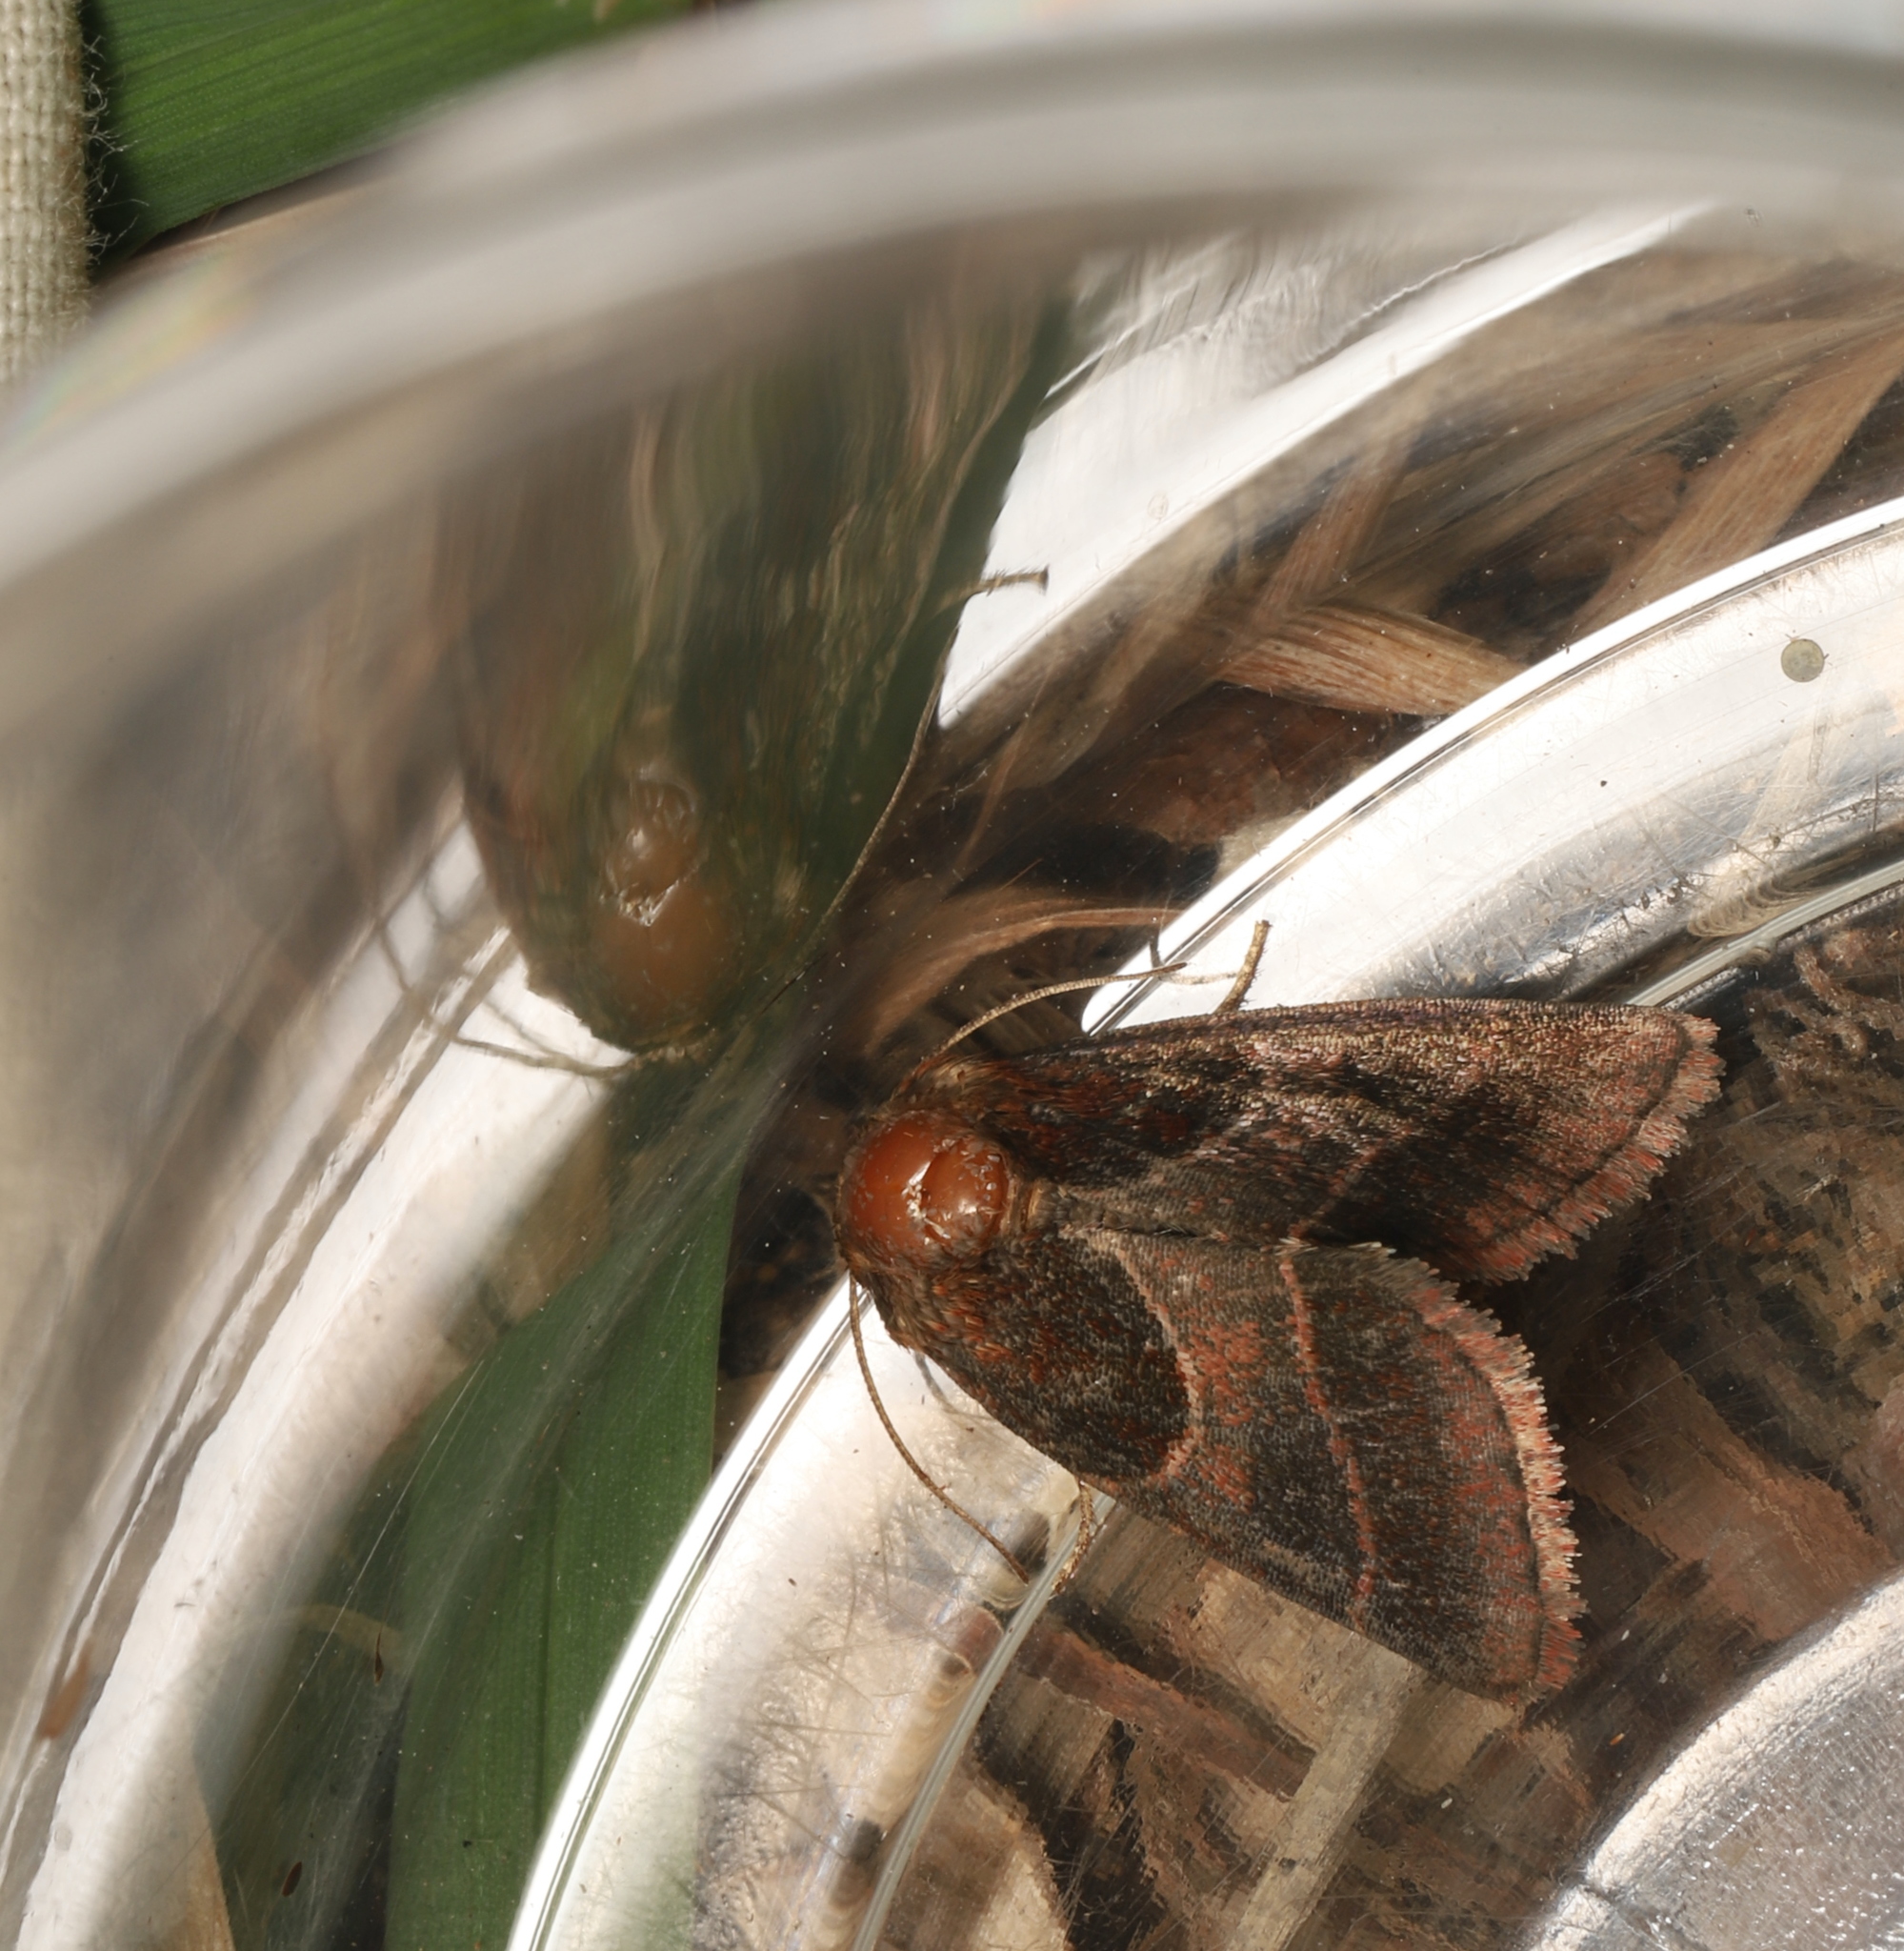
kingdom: Animalia
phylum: Arthropoda
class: Insecta
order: Lepidoptera
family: Noctuidae
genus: Schinia
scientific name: Schinia arcigera
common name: Arcigera flower moth
